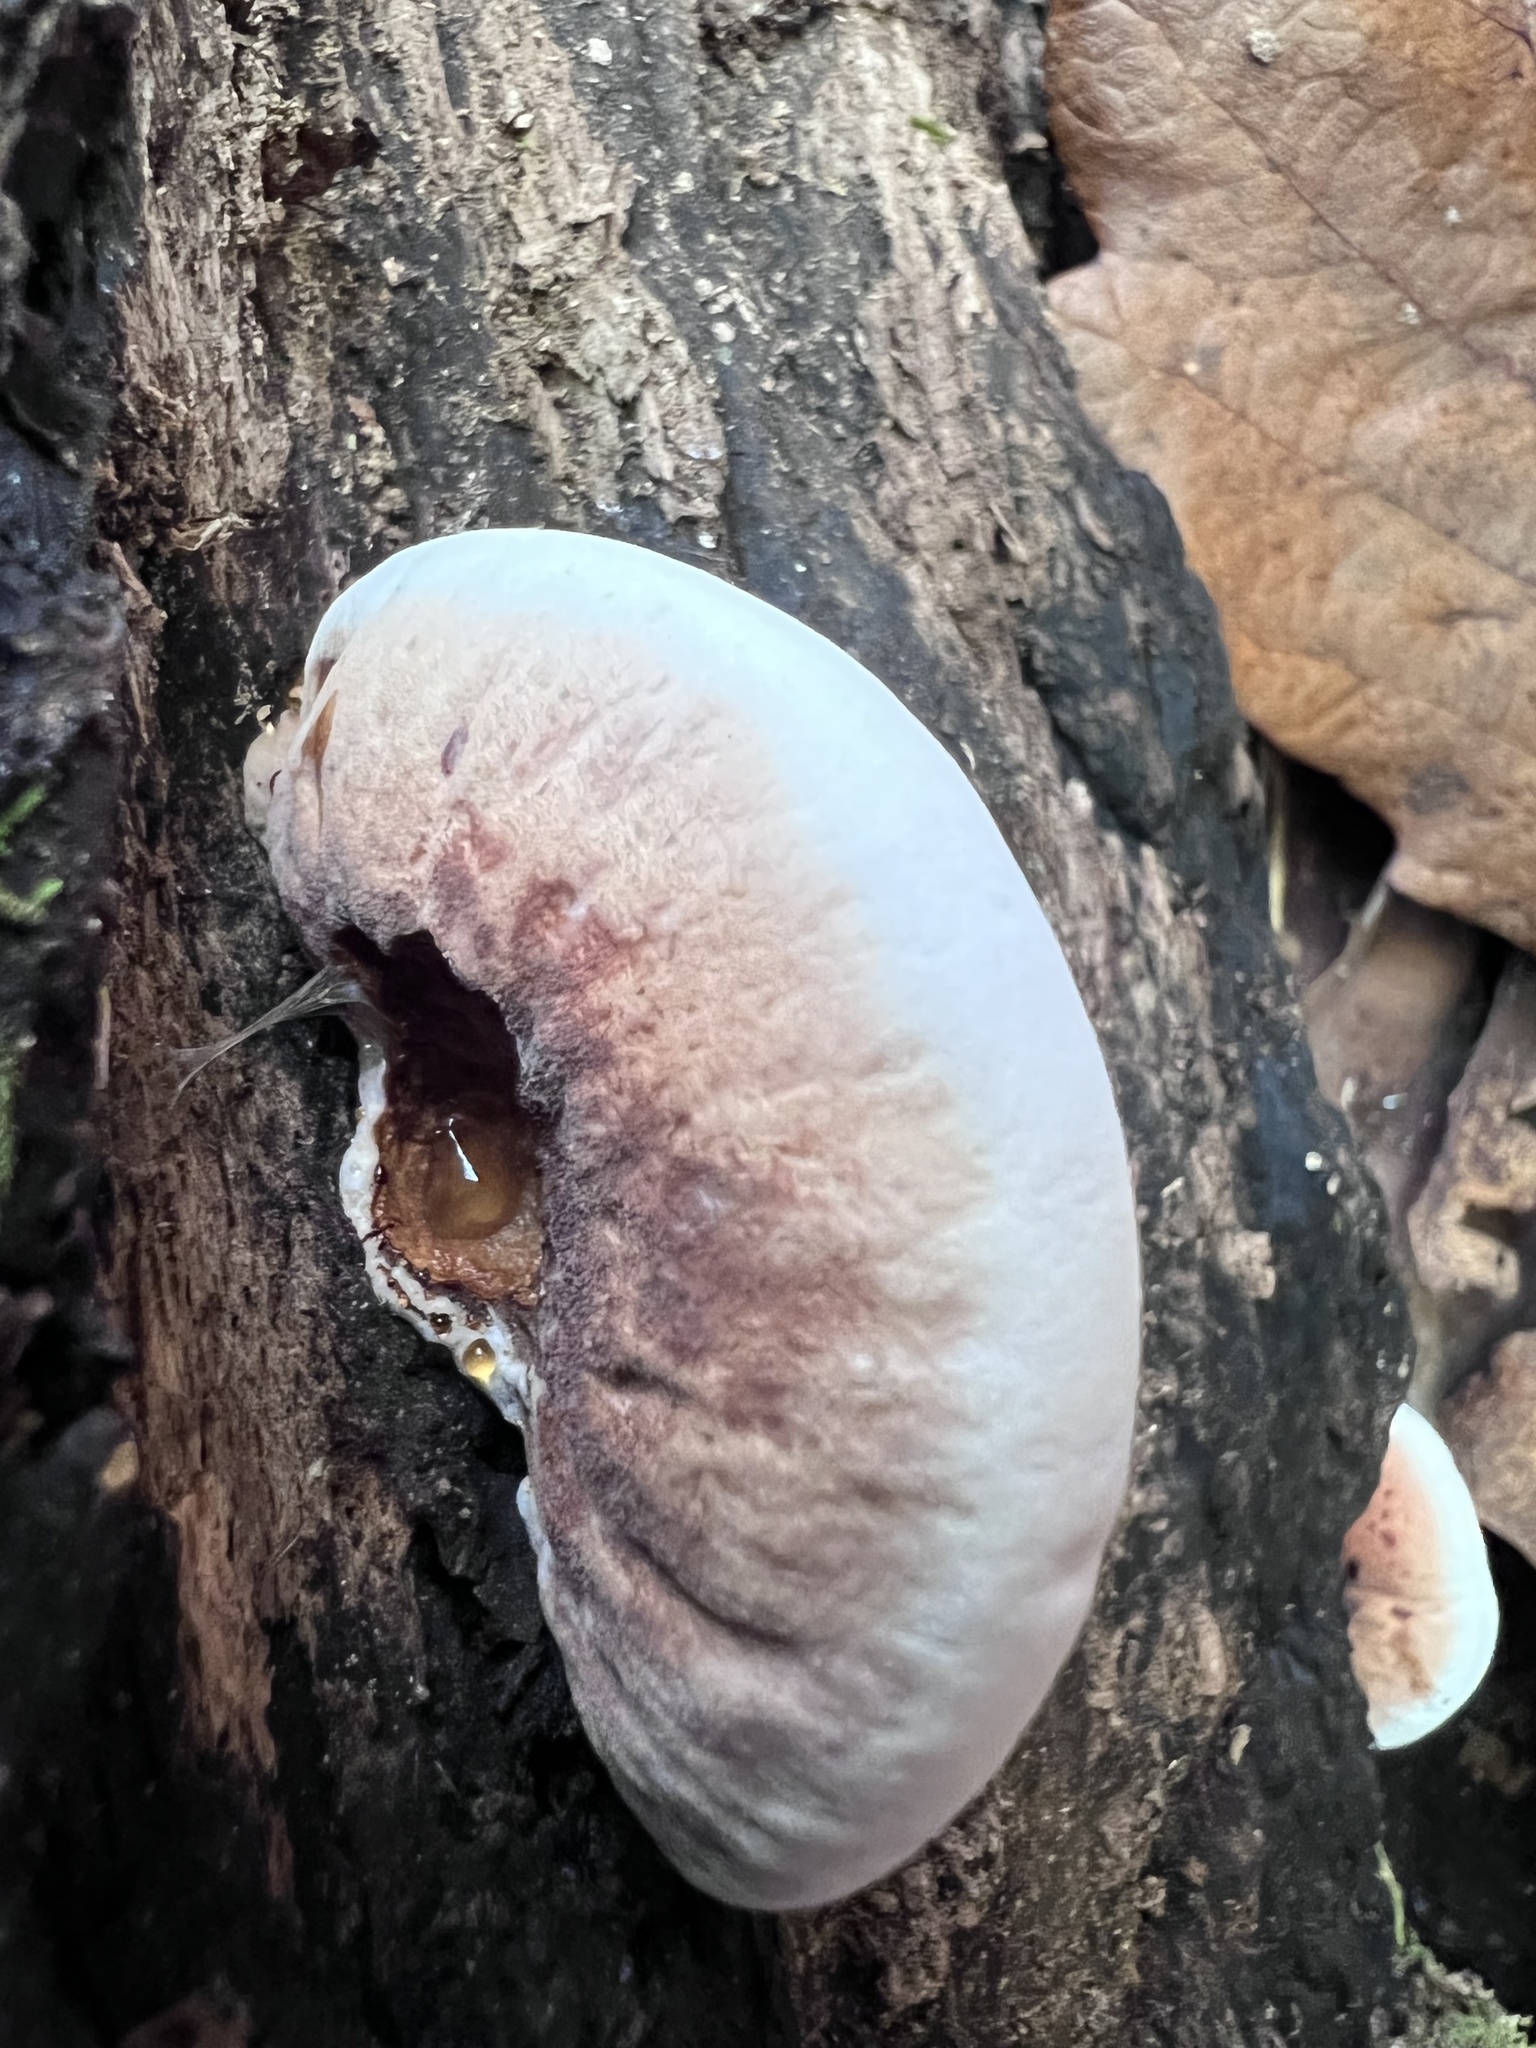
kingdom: Fungi
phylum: Basidiomycota
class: Agaricomycetes
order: Polyporales
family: Ischnodermataceae
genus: Ischnoderma
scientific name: Ischnoderma resinosum
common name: Resinous polypore
